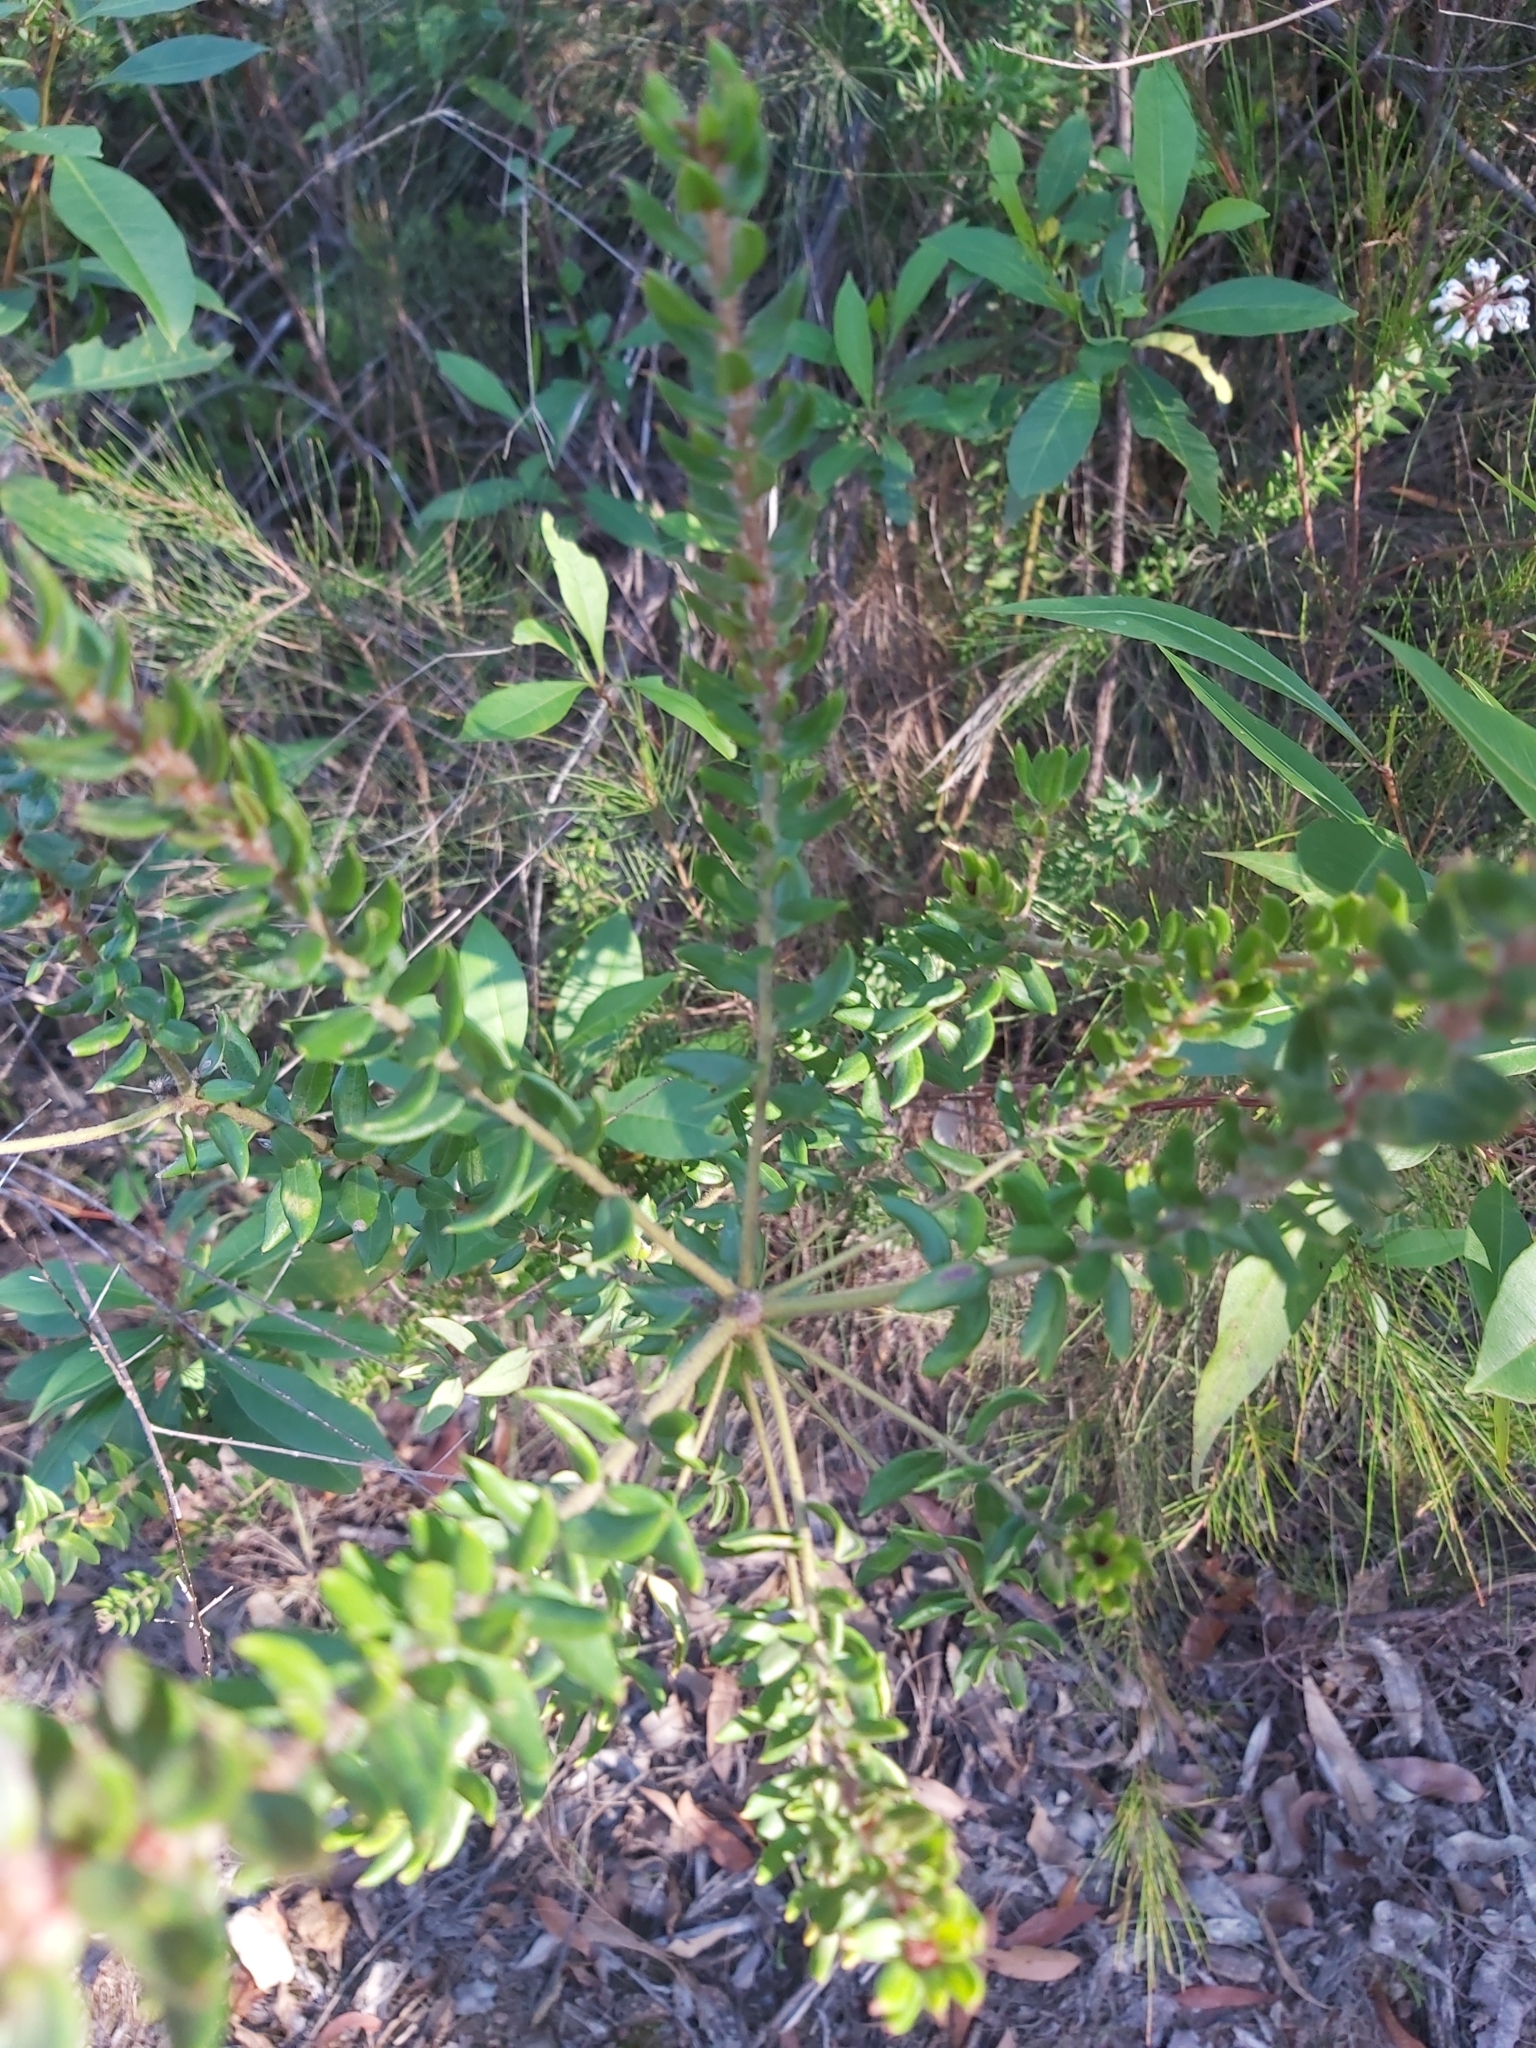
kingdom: Plantae
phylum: Tracheophyta
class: Magnoliopsida
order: Proteales
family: Proteaceae
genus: Grevillea
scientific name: Grevillea buxifolia
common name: Grey spiderflower
